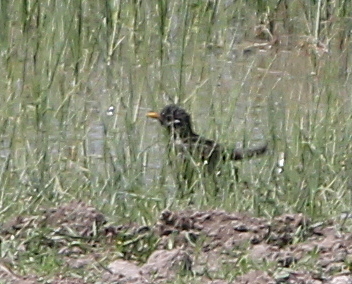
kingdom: Animalia
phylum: Chordata
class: Aves
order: Passeriformes
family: Turdidae
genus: Turdus
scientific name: Turdus merula
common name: Common blackbird
